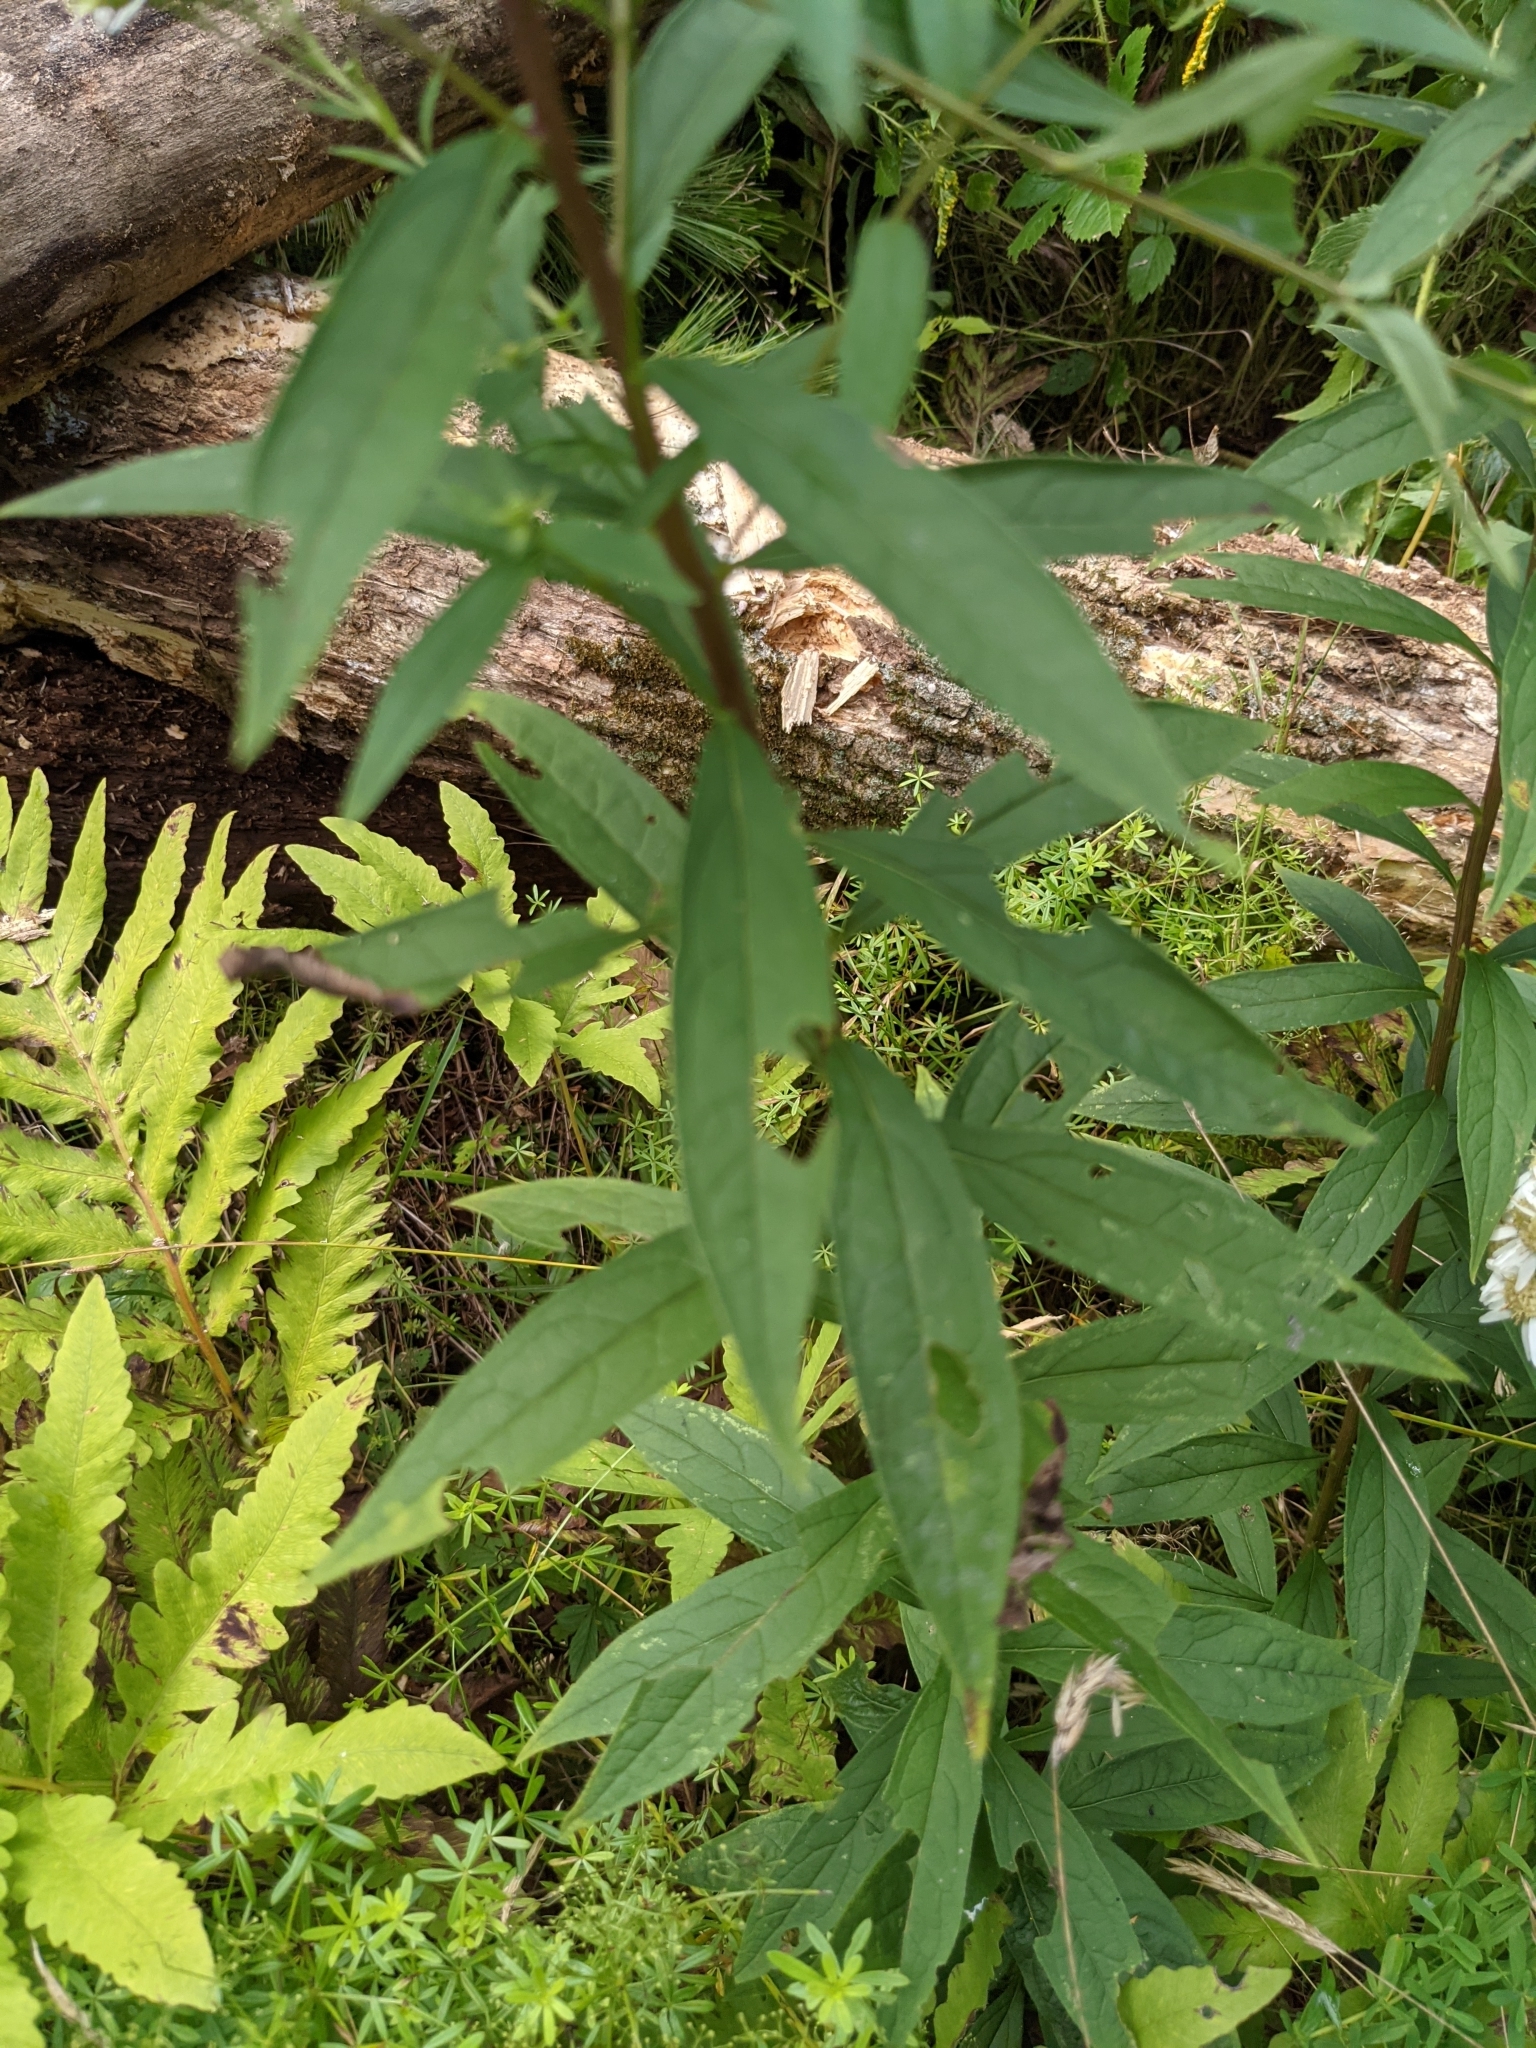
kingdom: Plantae
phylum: Tracheophyta
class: Magnoliopsida
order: Asterales
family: Asteraceae
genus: Doellingeria
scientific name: Doellingeria umbellata
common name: Flat-top white aster
